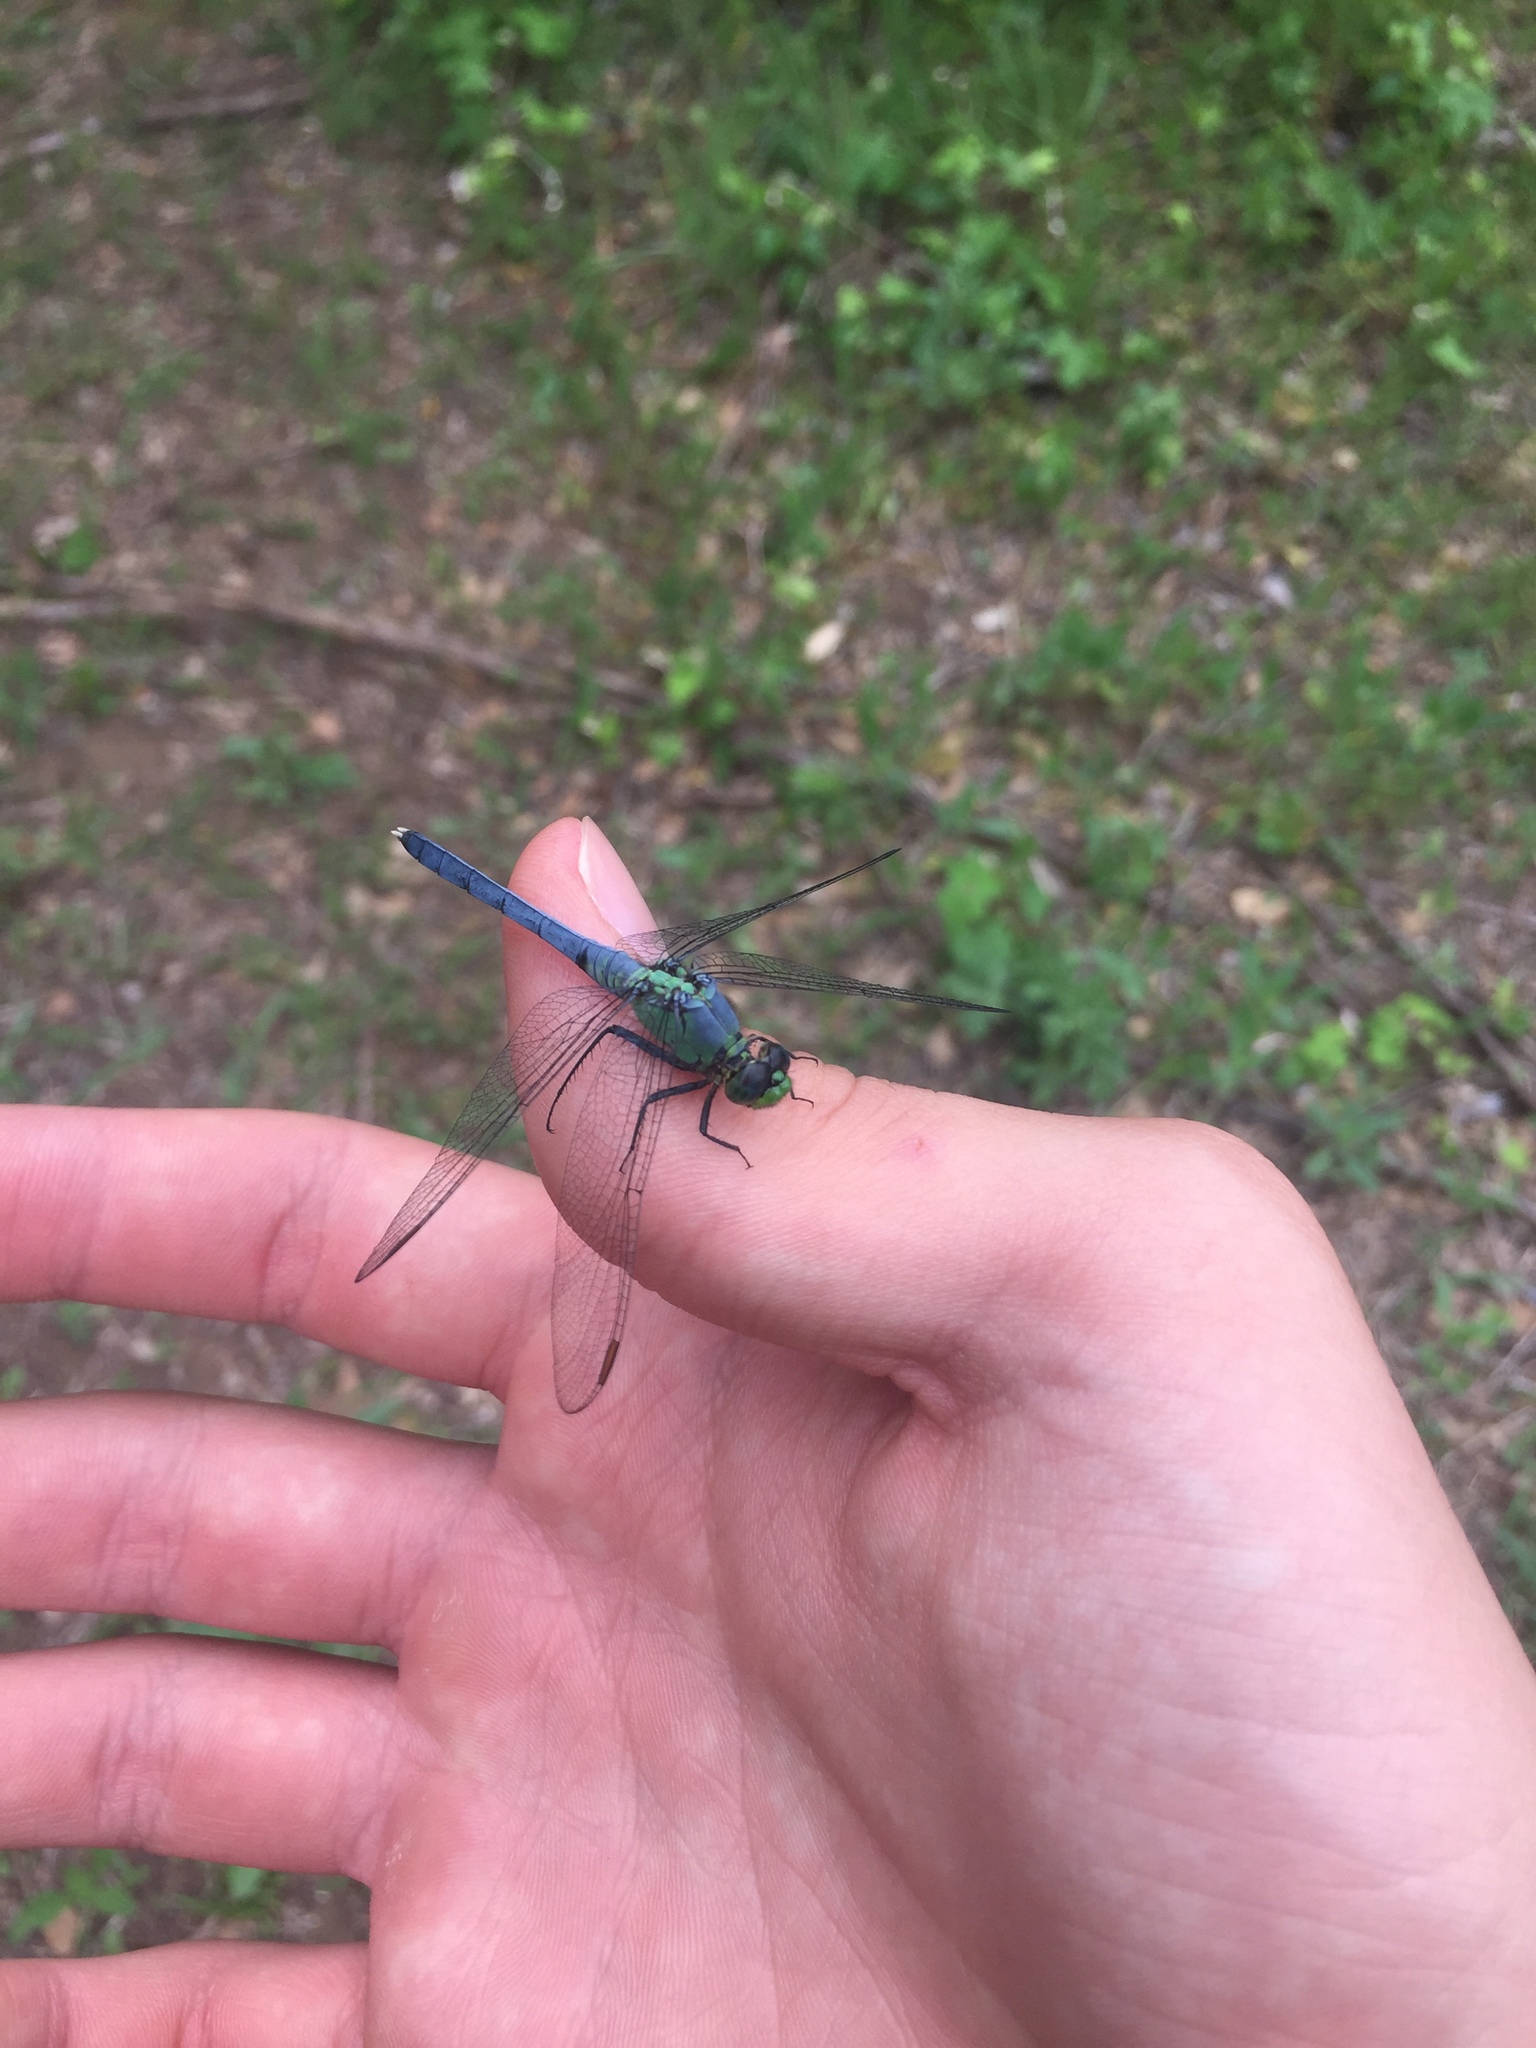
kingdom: Animalia
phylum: Arthropoda
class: Insecta
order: Odonata
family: Libellulidae
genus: Erythemis
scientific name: Erythemis simplicicollis
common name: Eastern pondhawk
